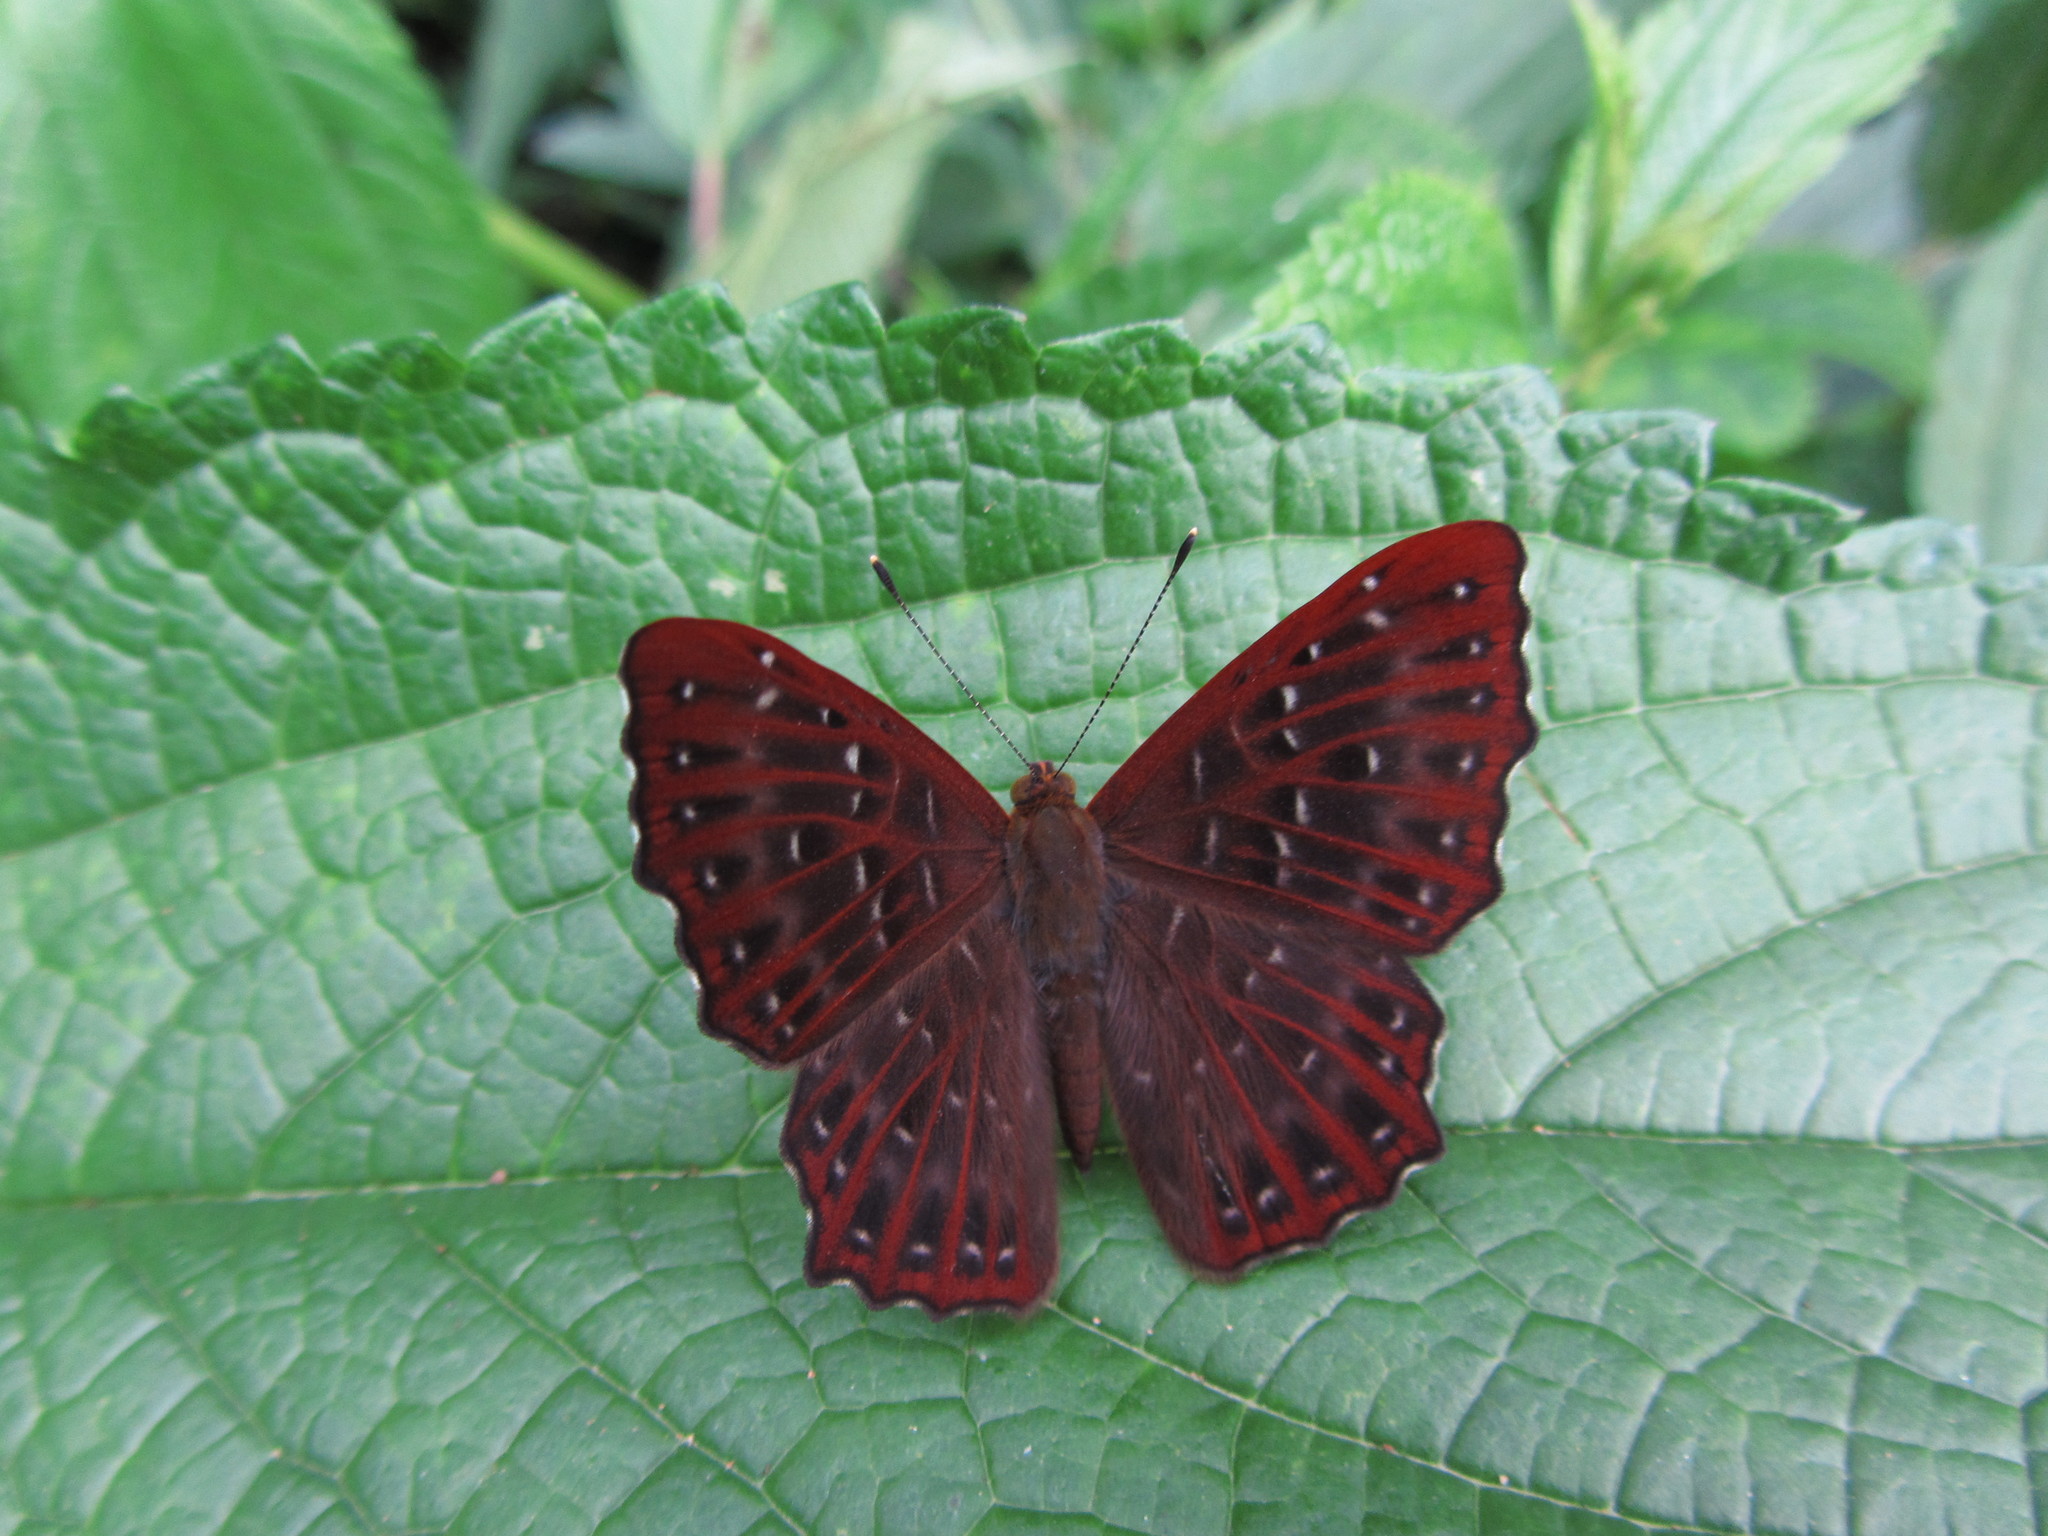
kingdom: Animalia
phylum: Arthropoda
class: Insecta
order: Lepidoptera
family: Riodinidae
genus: Zemeros
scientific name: Zemeros flegyas
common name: Punchinello
